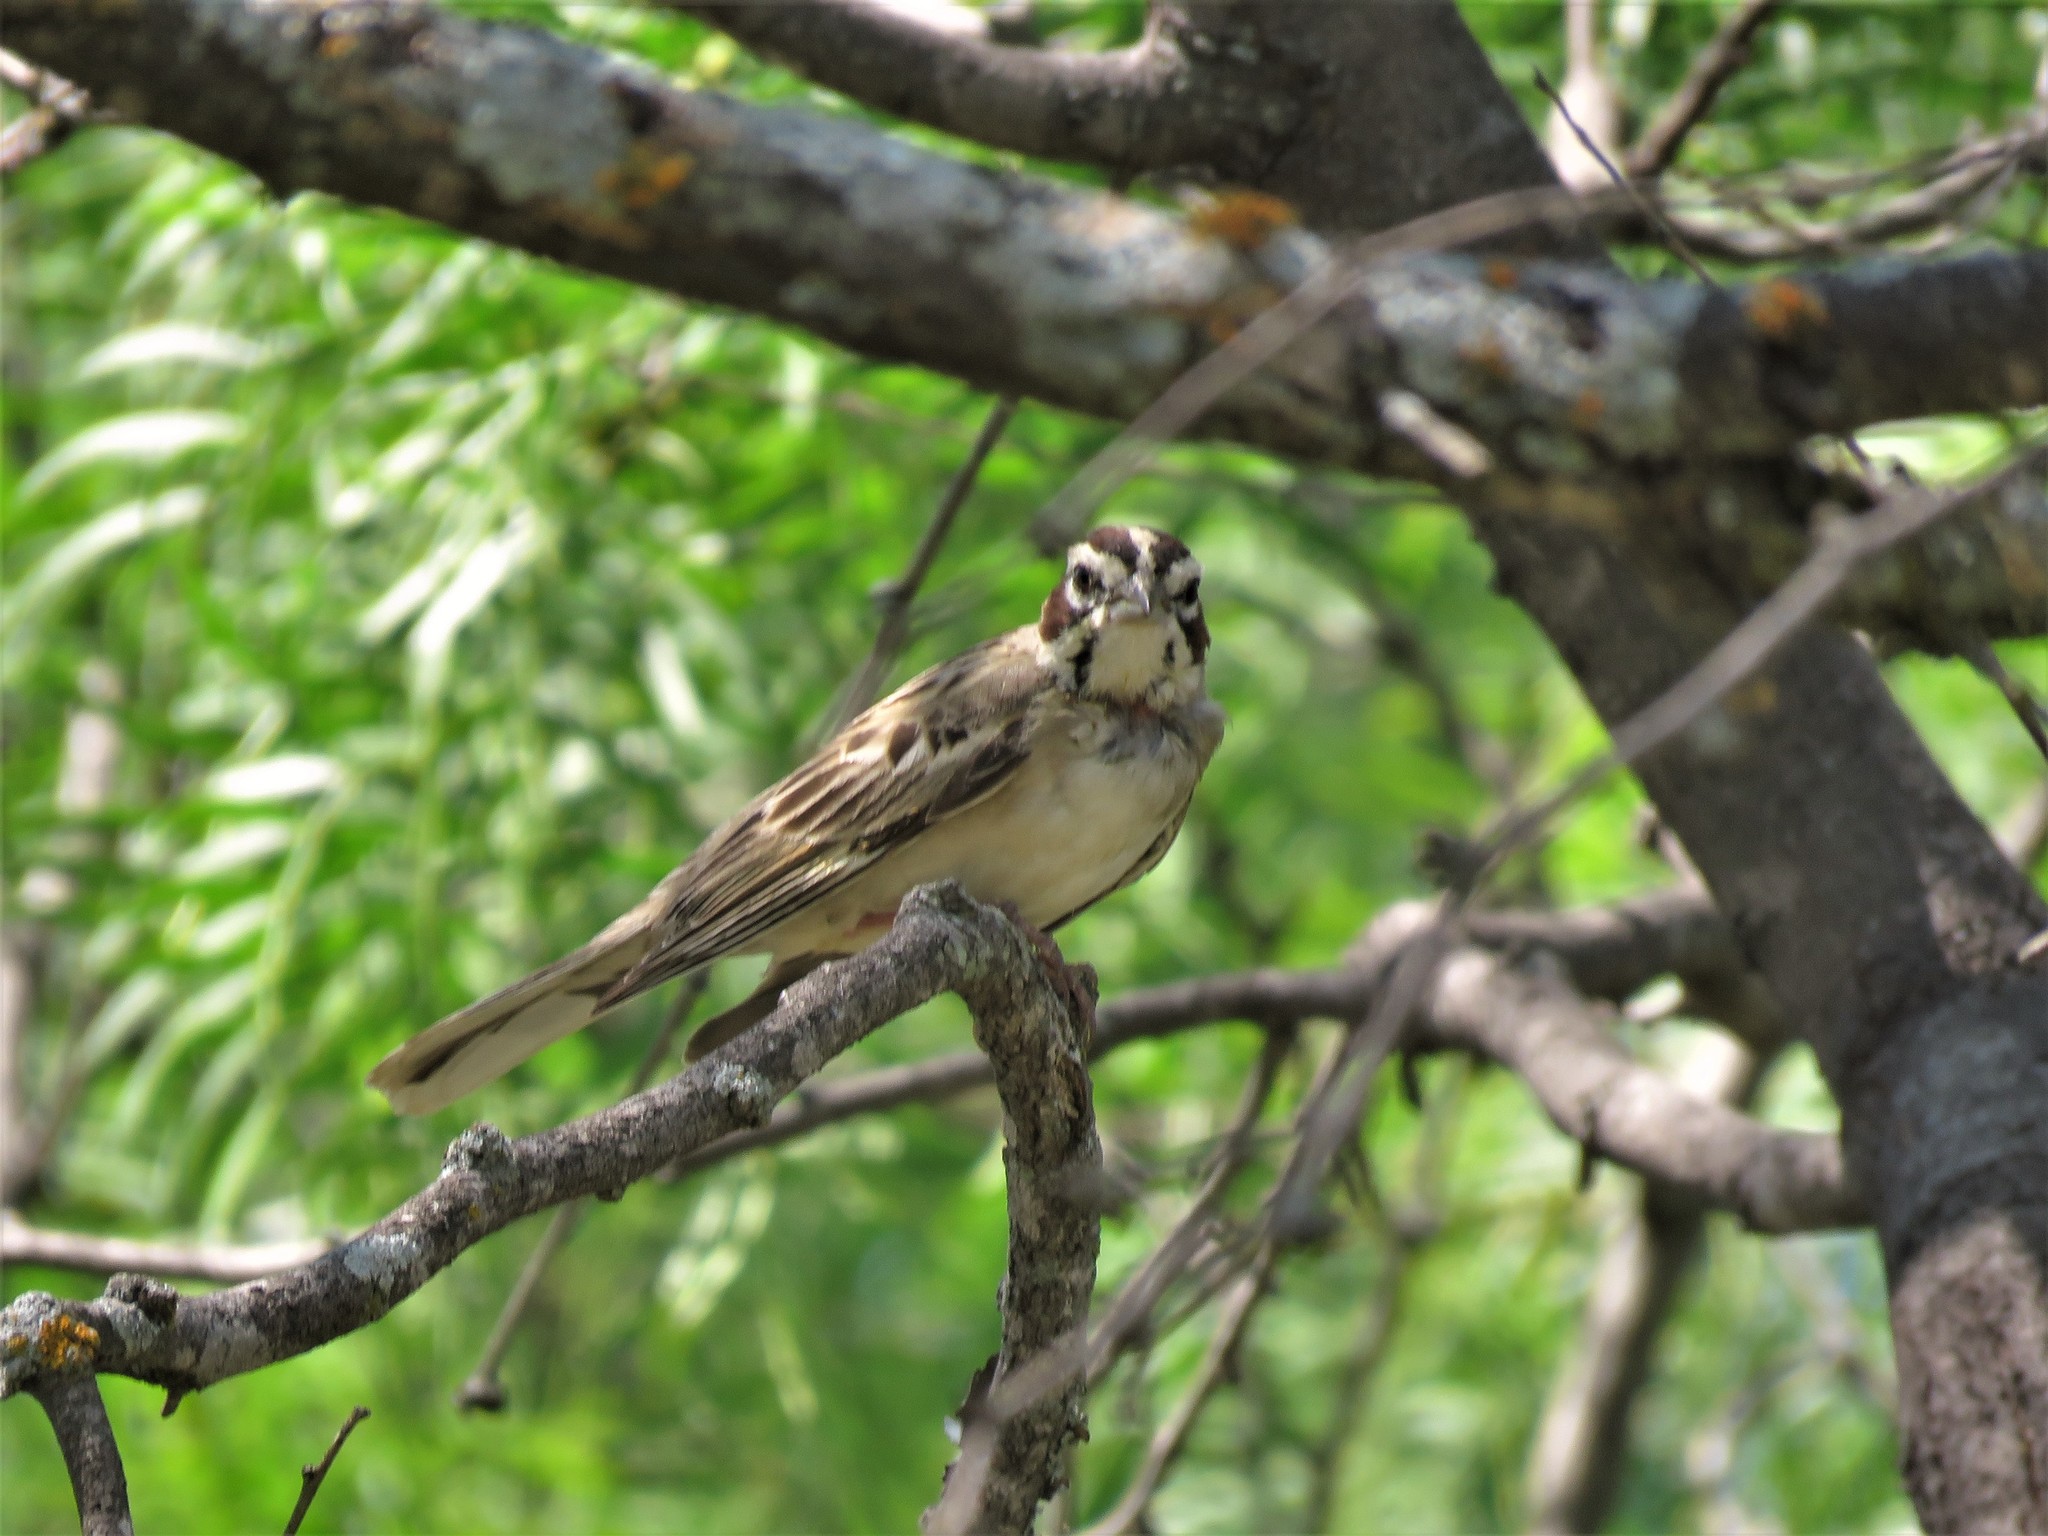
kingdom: Animalia
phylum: Chordata
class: Aves
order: Passeriformes
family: Passerellidae
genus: Chondestes
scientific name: Chondestes grammacus
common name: Lark sparrow
